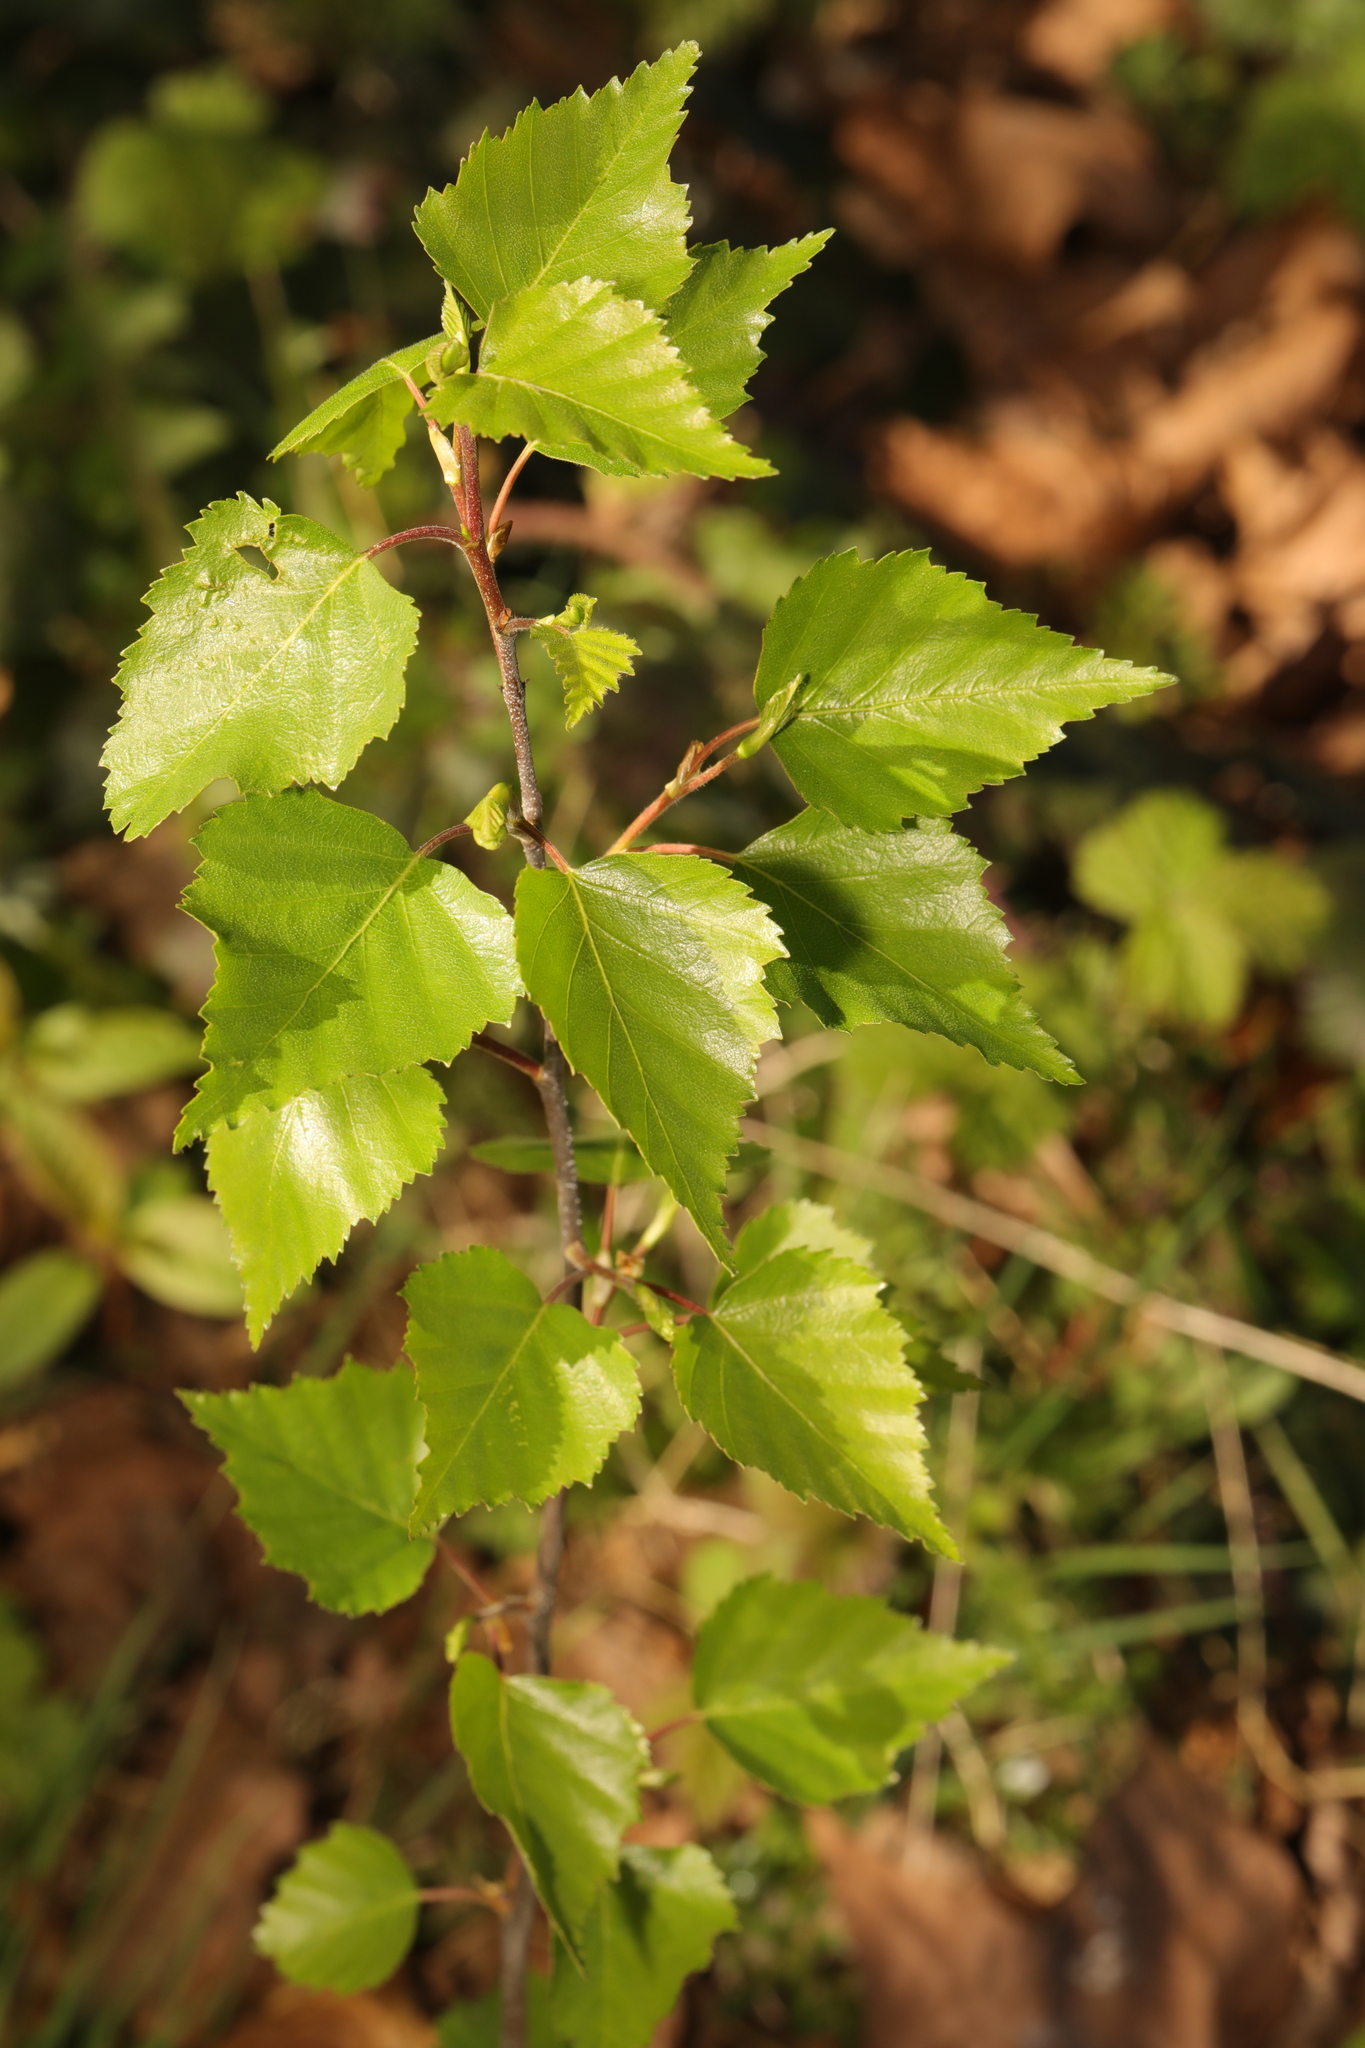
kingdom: Plantae
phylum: Tracheophyta
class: Magnoliopsida
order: Fagales
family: Betulaceae
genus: Betula
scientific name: Betula pendula
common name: Silver birch
